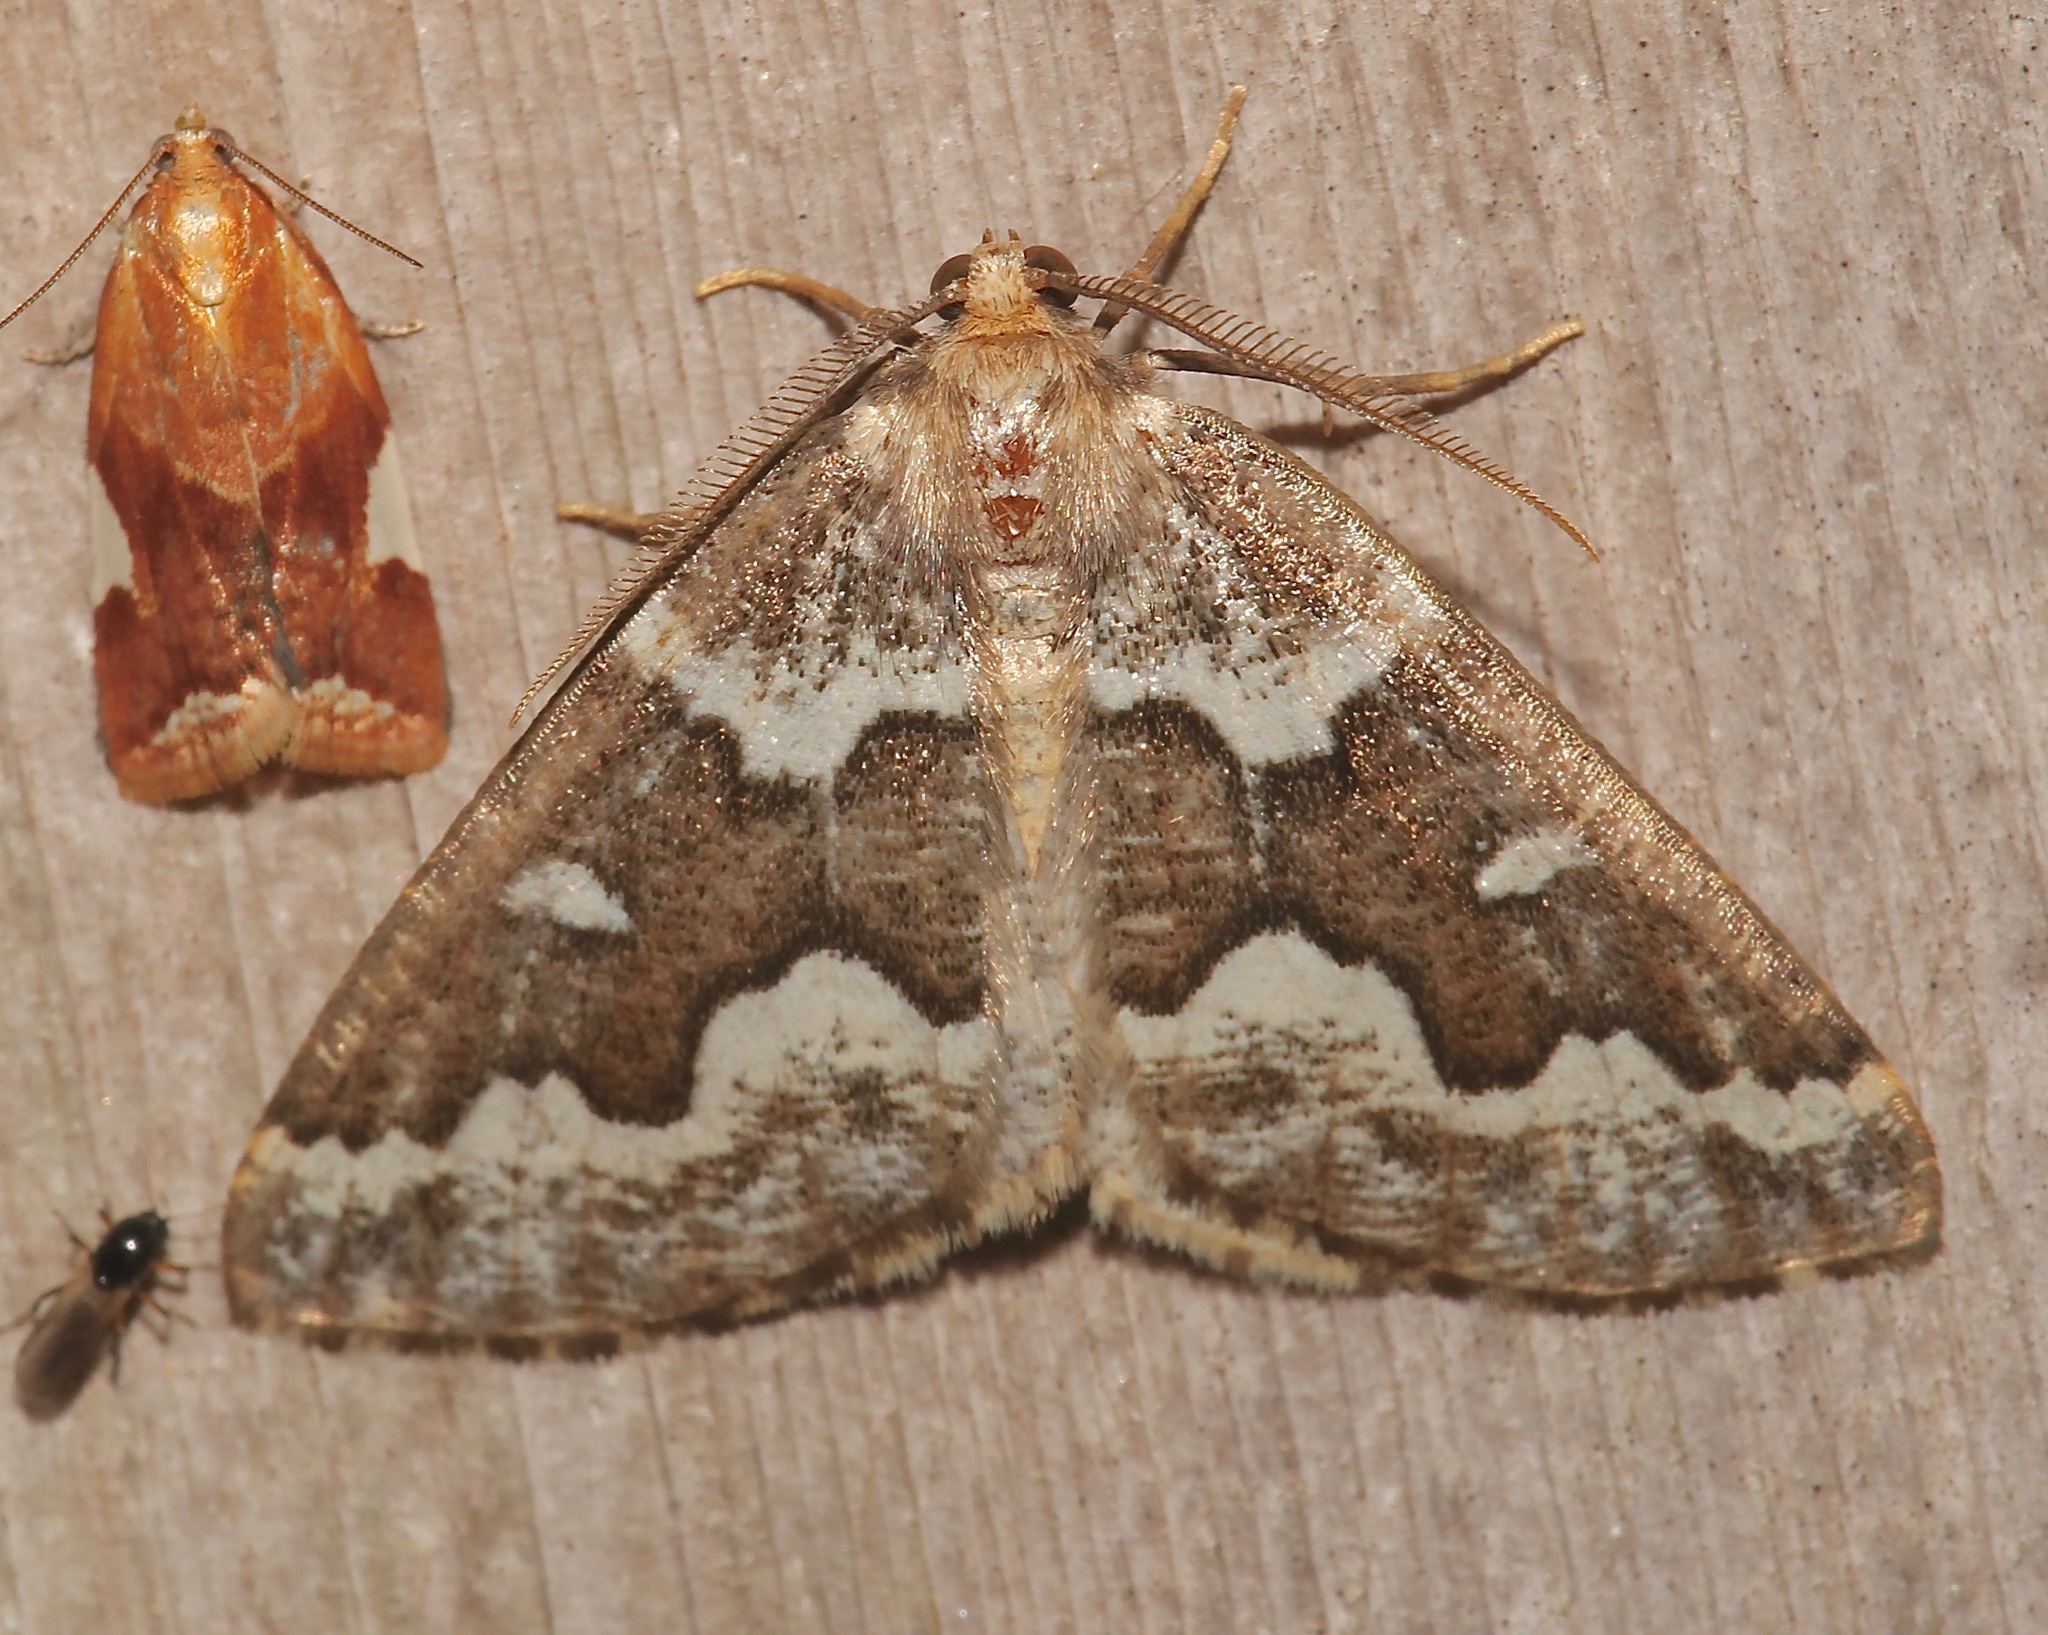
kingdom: Animalia
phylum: Arthropoda
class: Insecta
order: Lepidoptera
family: Geometridae
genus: Caripeta
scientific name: Caripeta divisata
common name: Gray spruce looper
